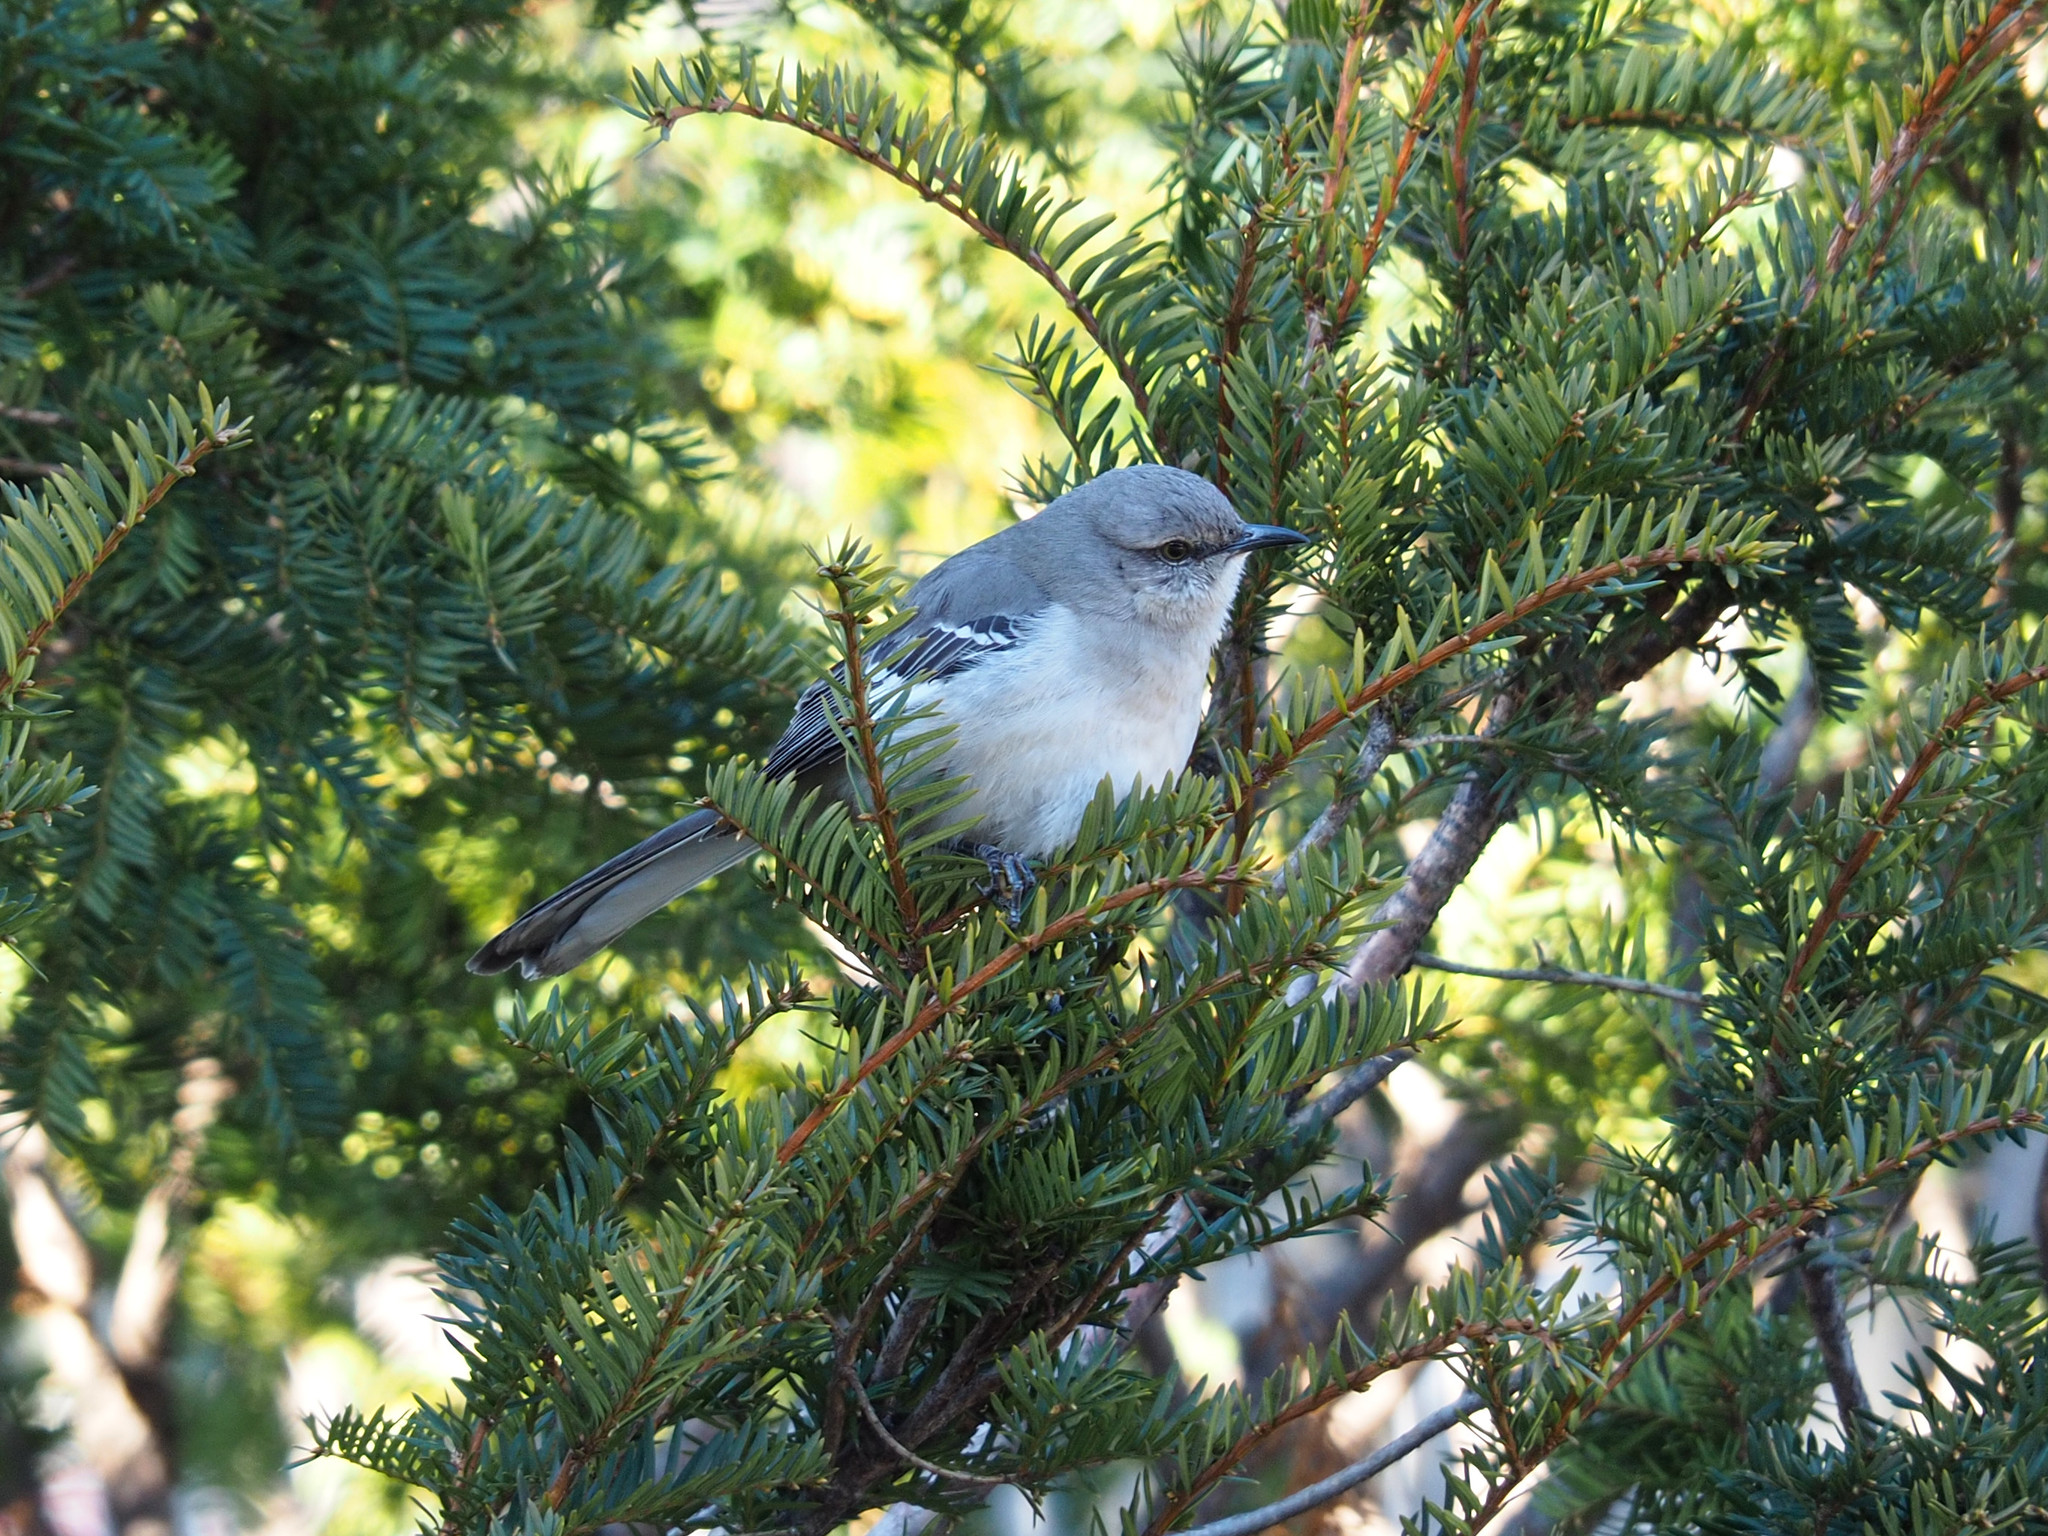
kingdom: Animalia
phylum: Chordata
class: Aves
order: Passeriformes
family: Mimidae
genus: Mimus
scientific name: Mimus polyglottos
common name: Northern mockingbird
